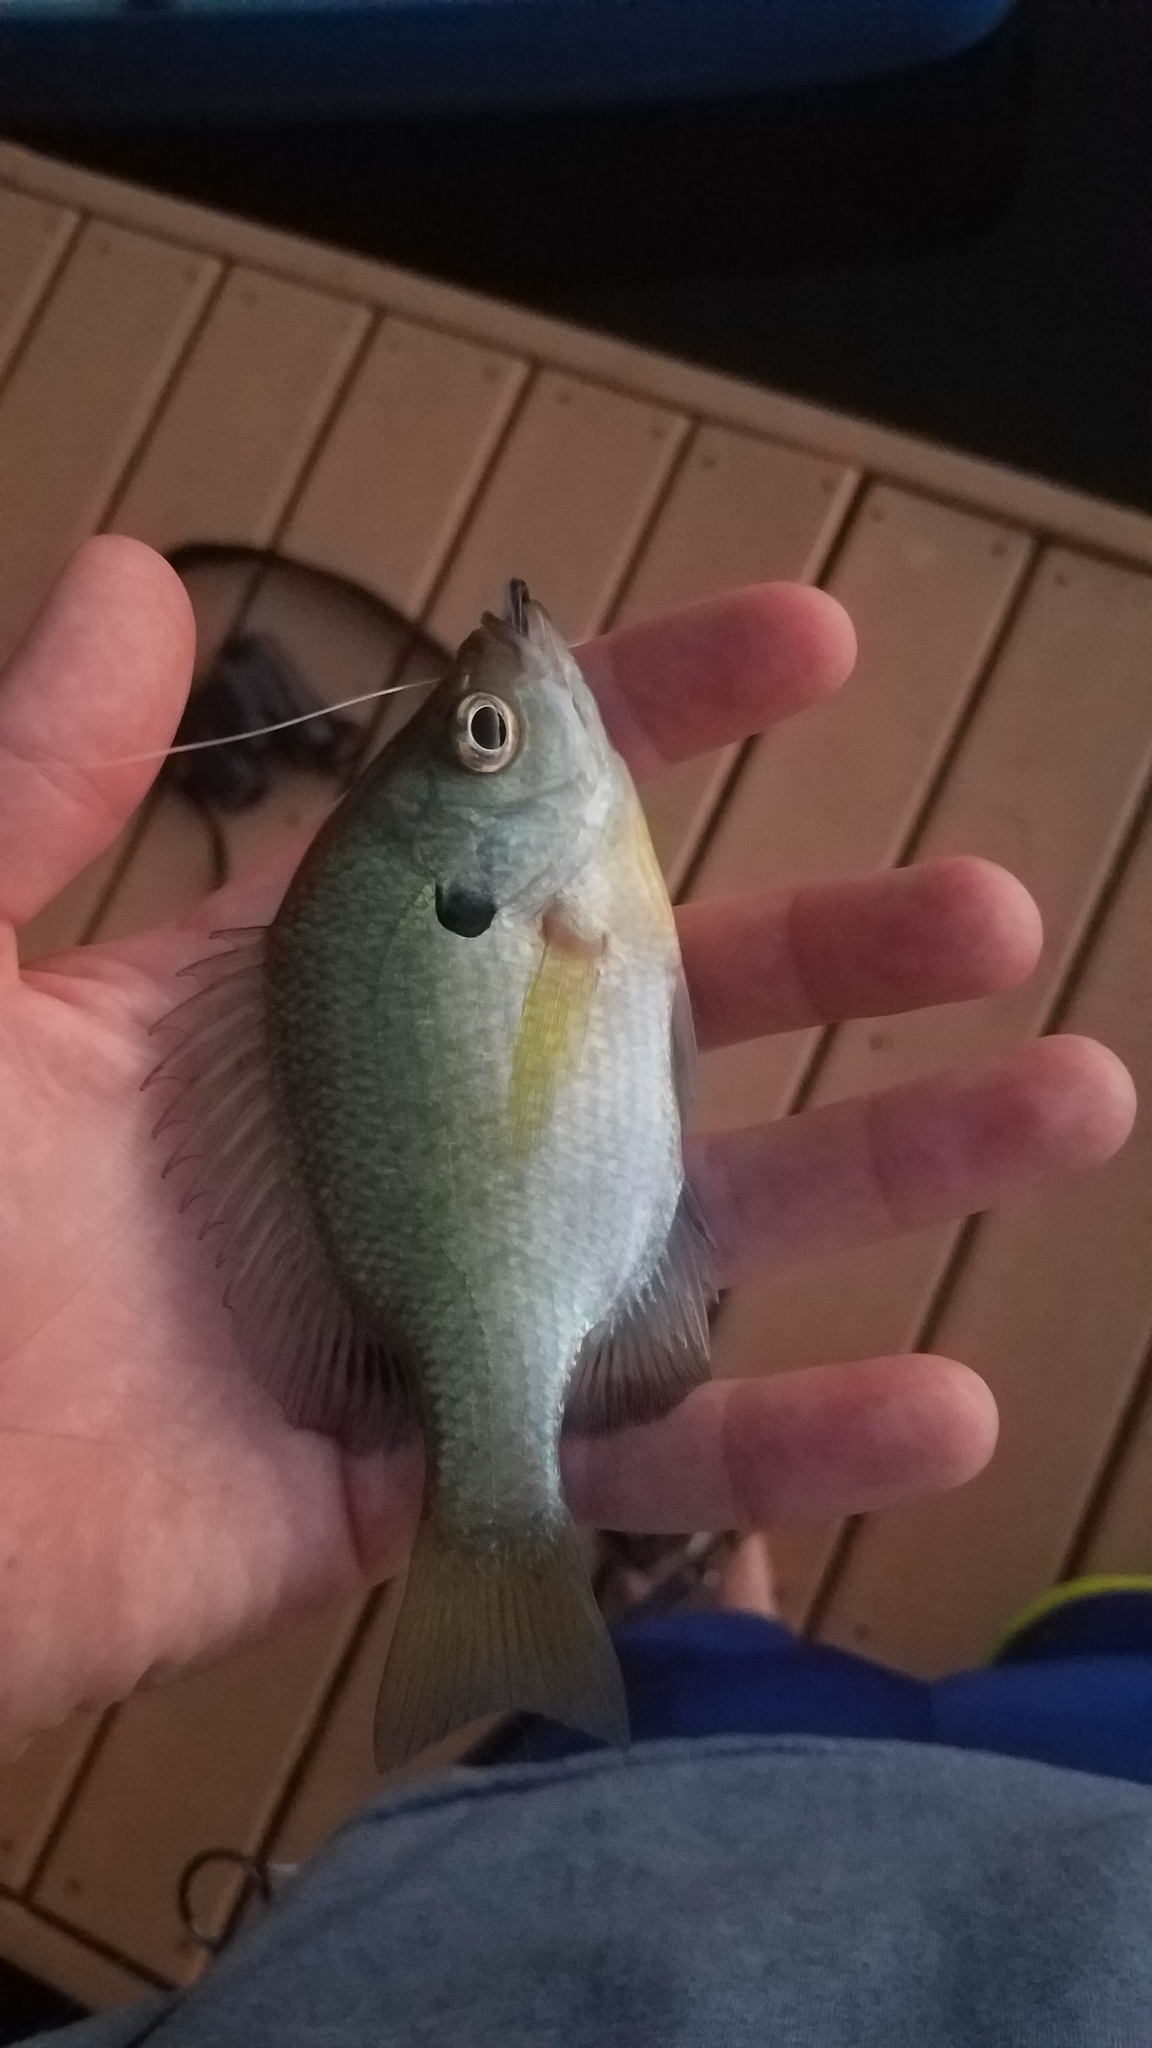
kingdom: Animalia
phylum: Chordata
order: Perciformes
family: Centrarchidae
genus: Lepomis
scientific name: Lepomis macrochirus
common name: Bluegill
